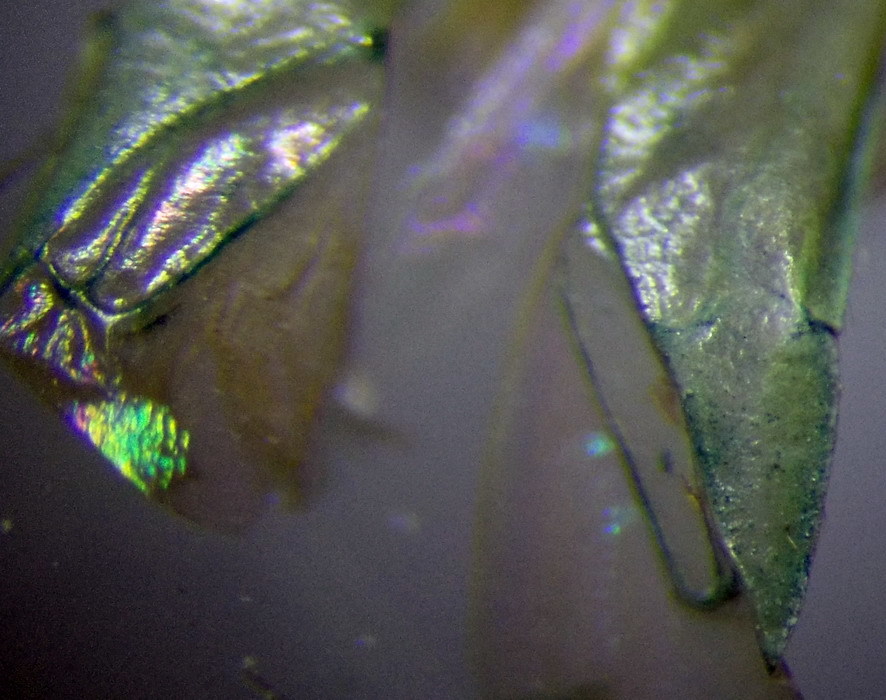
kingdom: Animalia
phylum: Arthropoda
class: Insecta
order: Hemiptera
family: Miridae
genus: Orthotylus
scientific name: Orthotylus nassatus
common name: Plant bug
